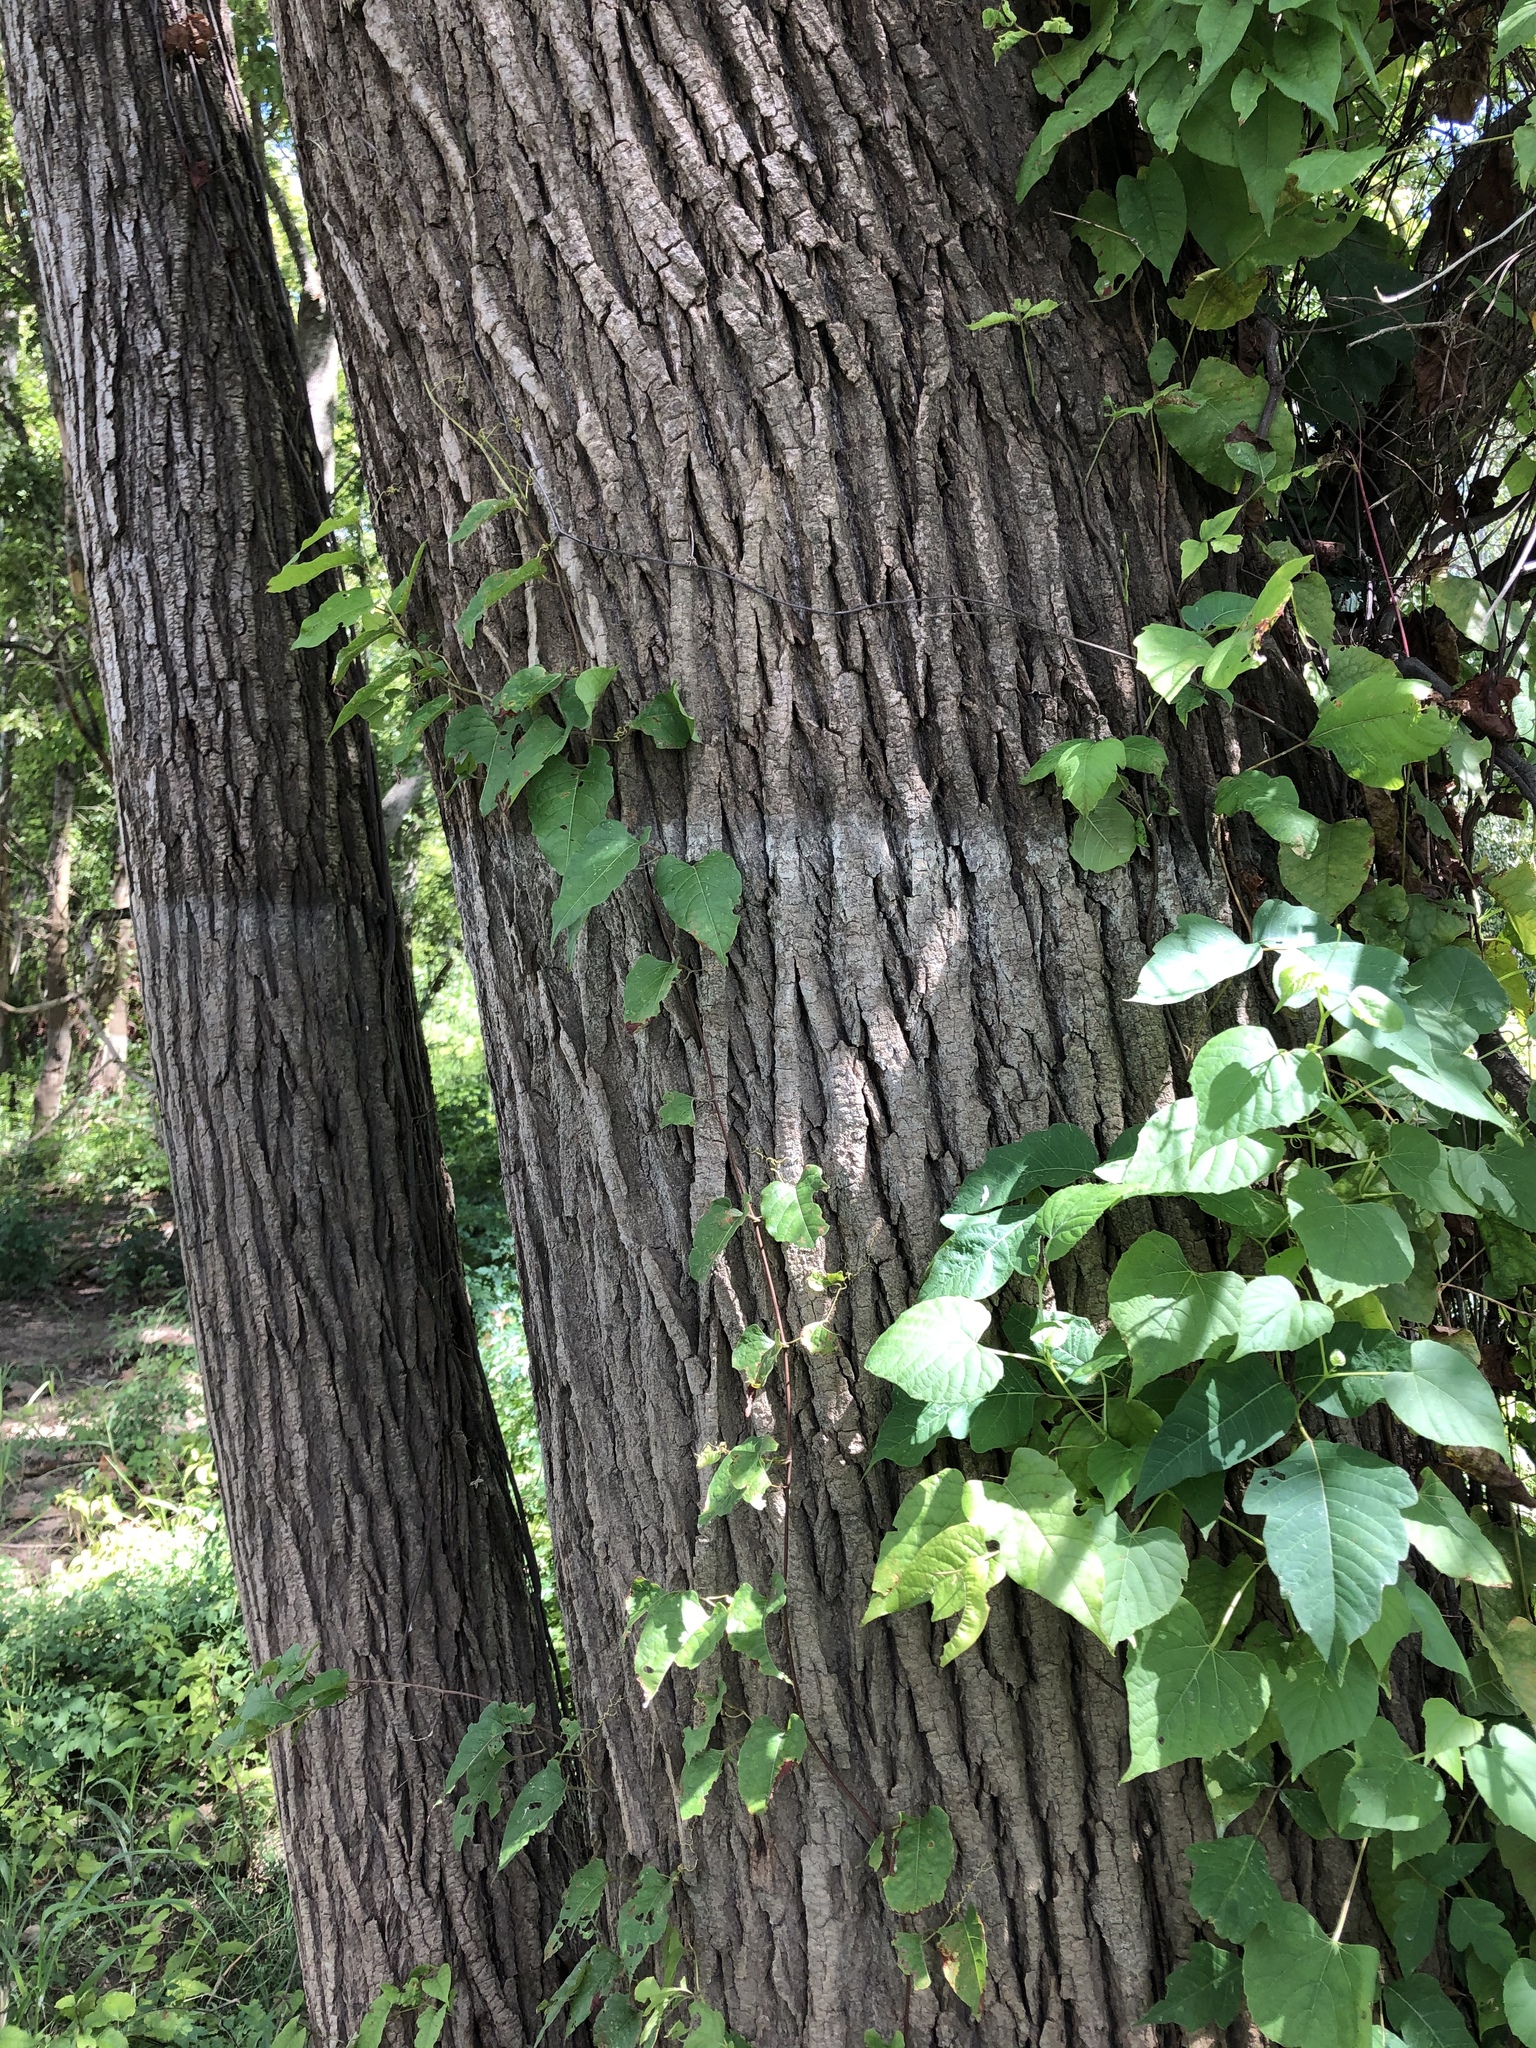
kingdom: Plantae
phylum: Tracheophyta
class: Magnoliopsida
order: Malpighiales
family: Salicaceae
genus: Populus
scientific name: Populus deltoides
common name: Eastern cottonwood
